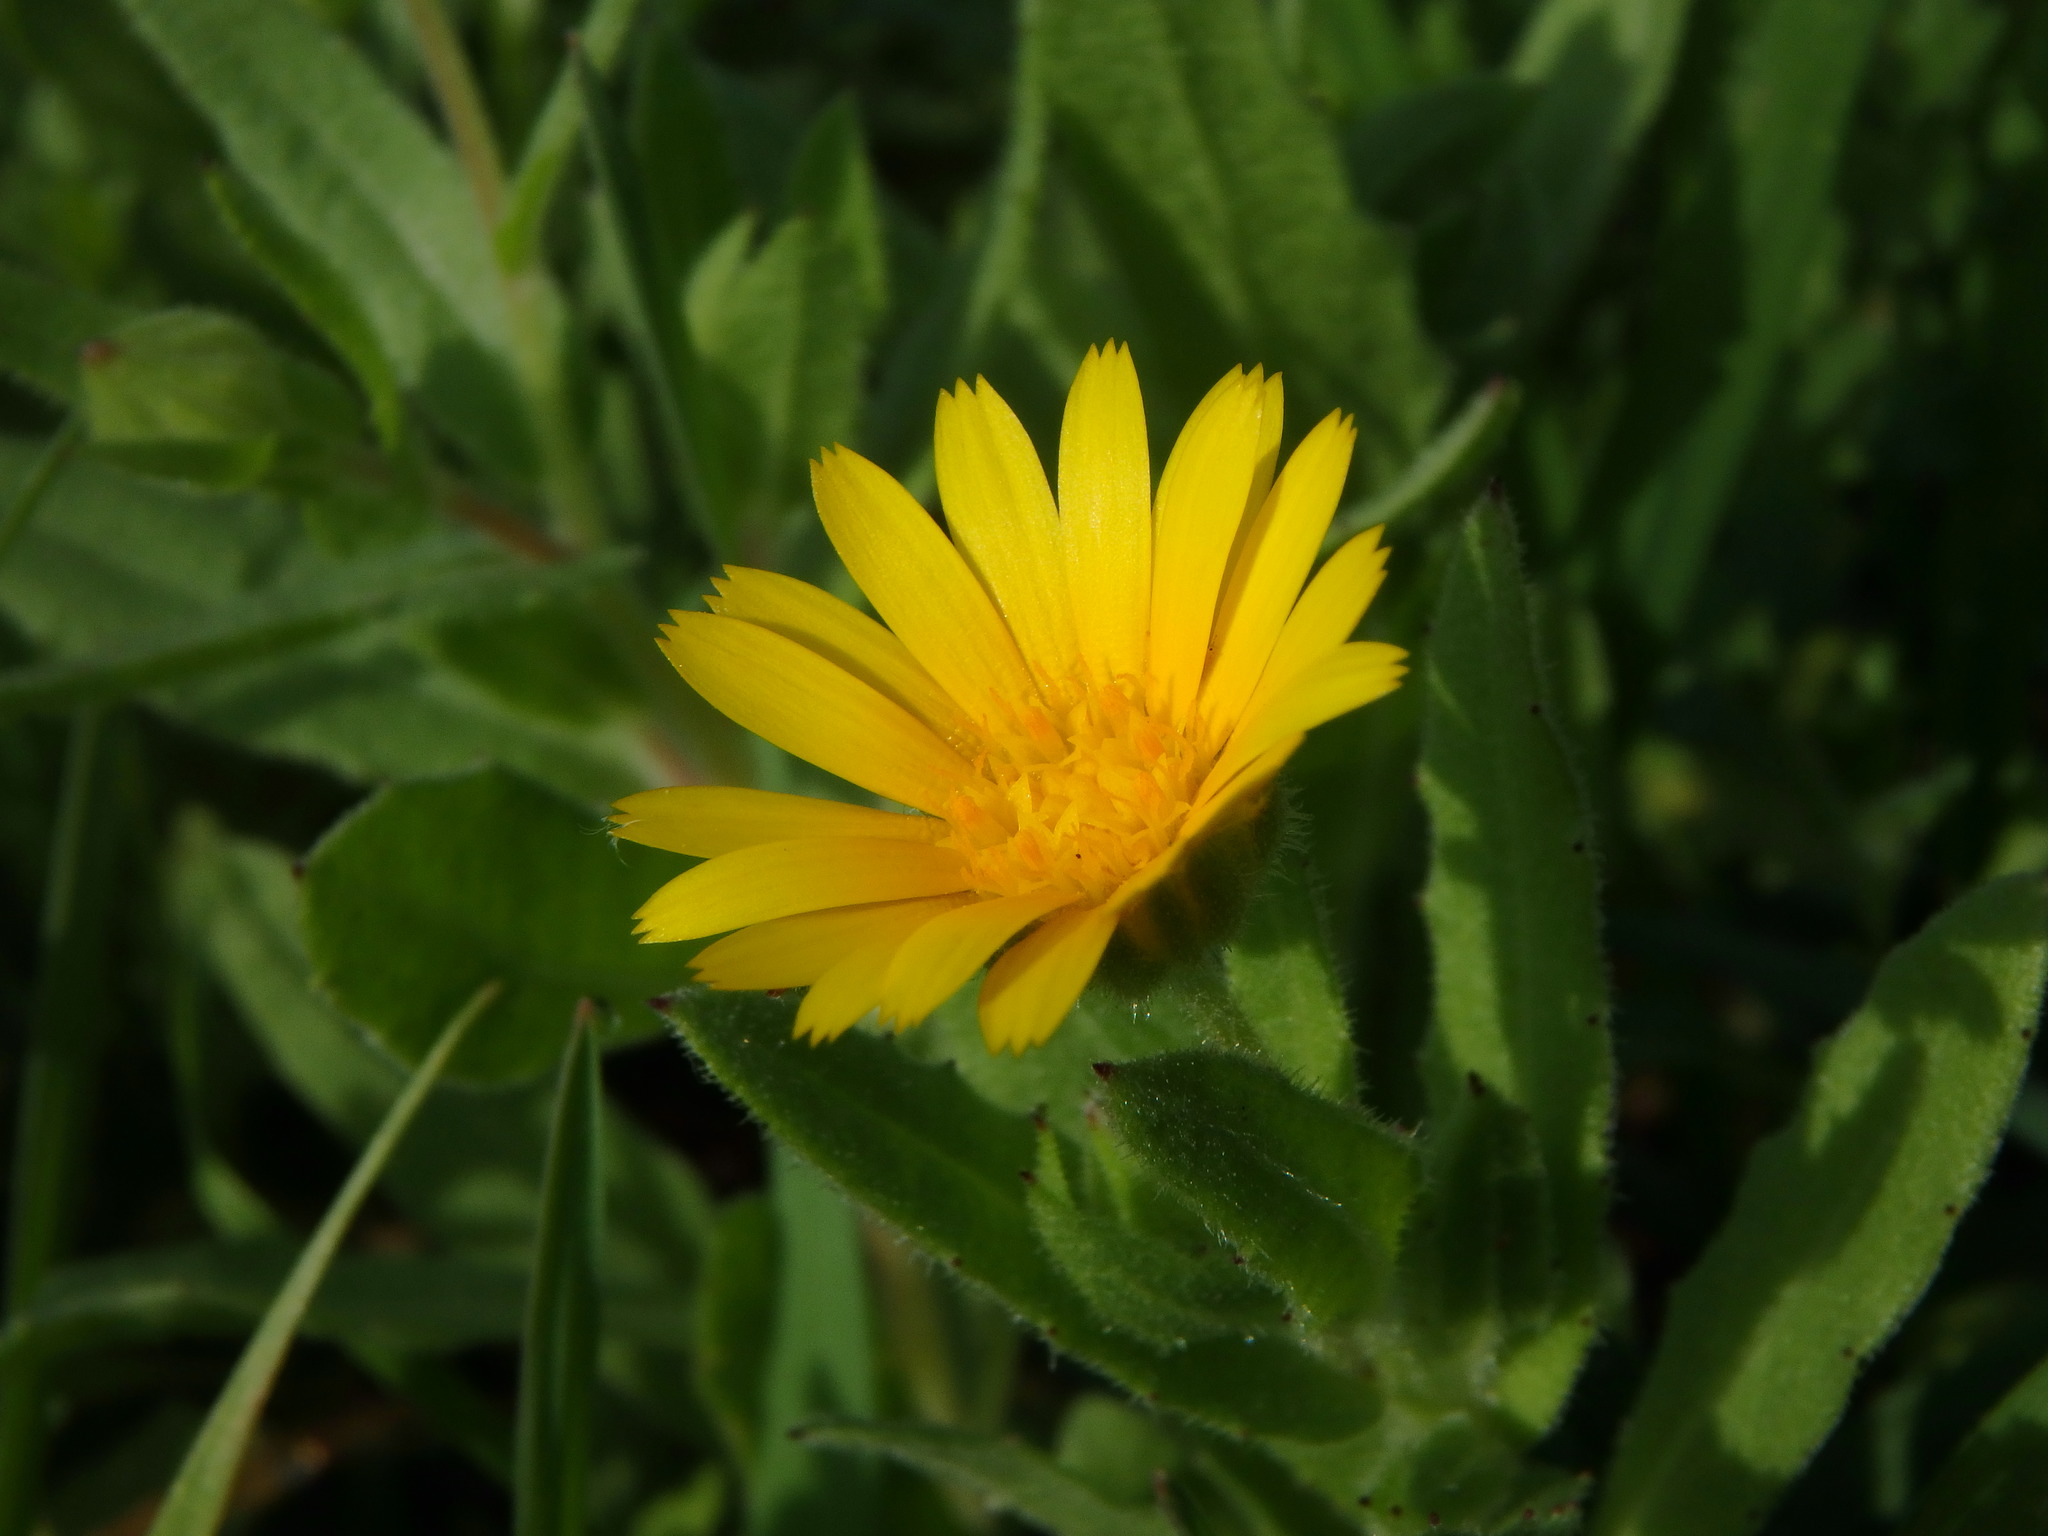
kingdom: Plantae
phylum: Tracheophyta
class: Magnoliopsida
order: Asterales
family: Asteraceae
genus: Calendula
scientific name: Calendula arvensis
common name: Field marigold
